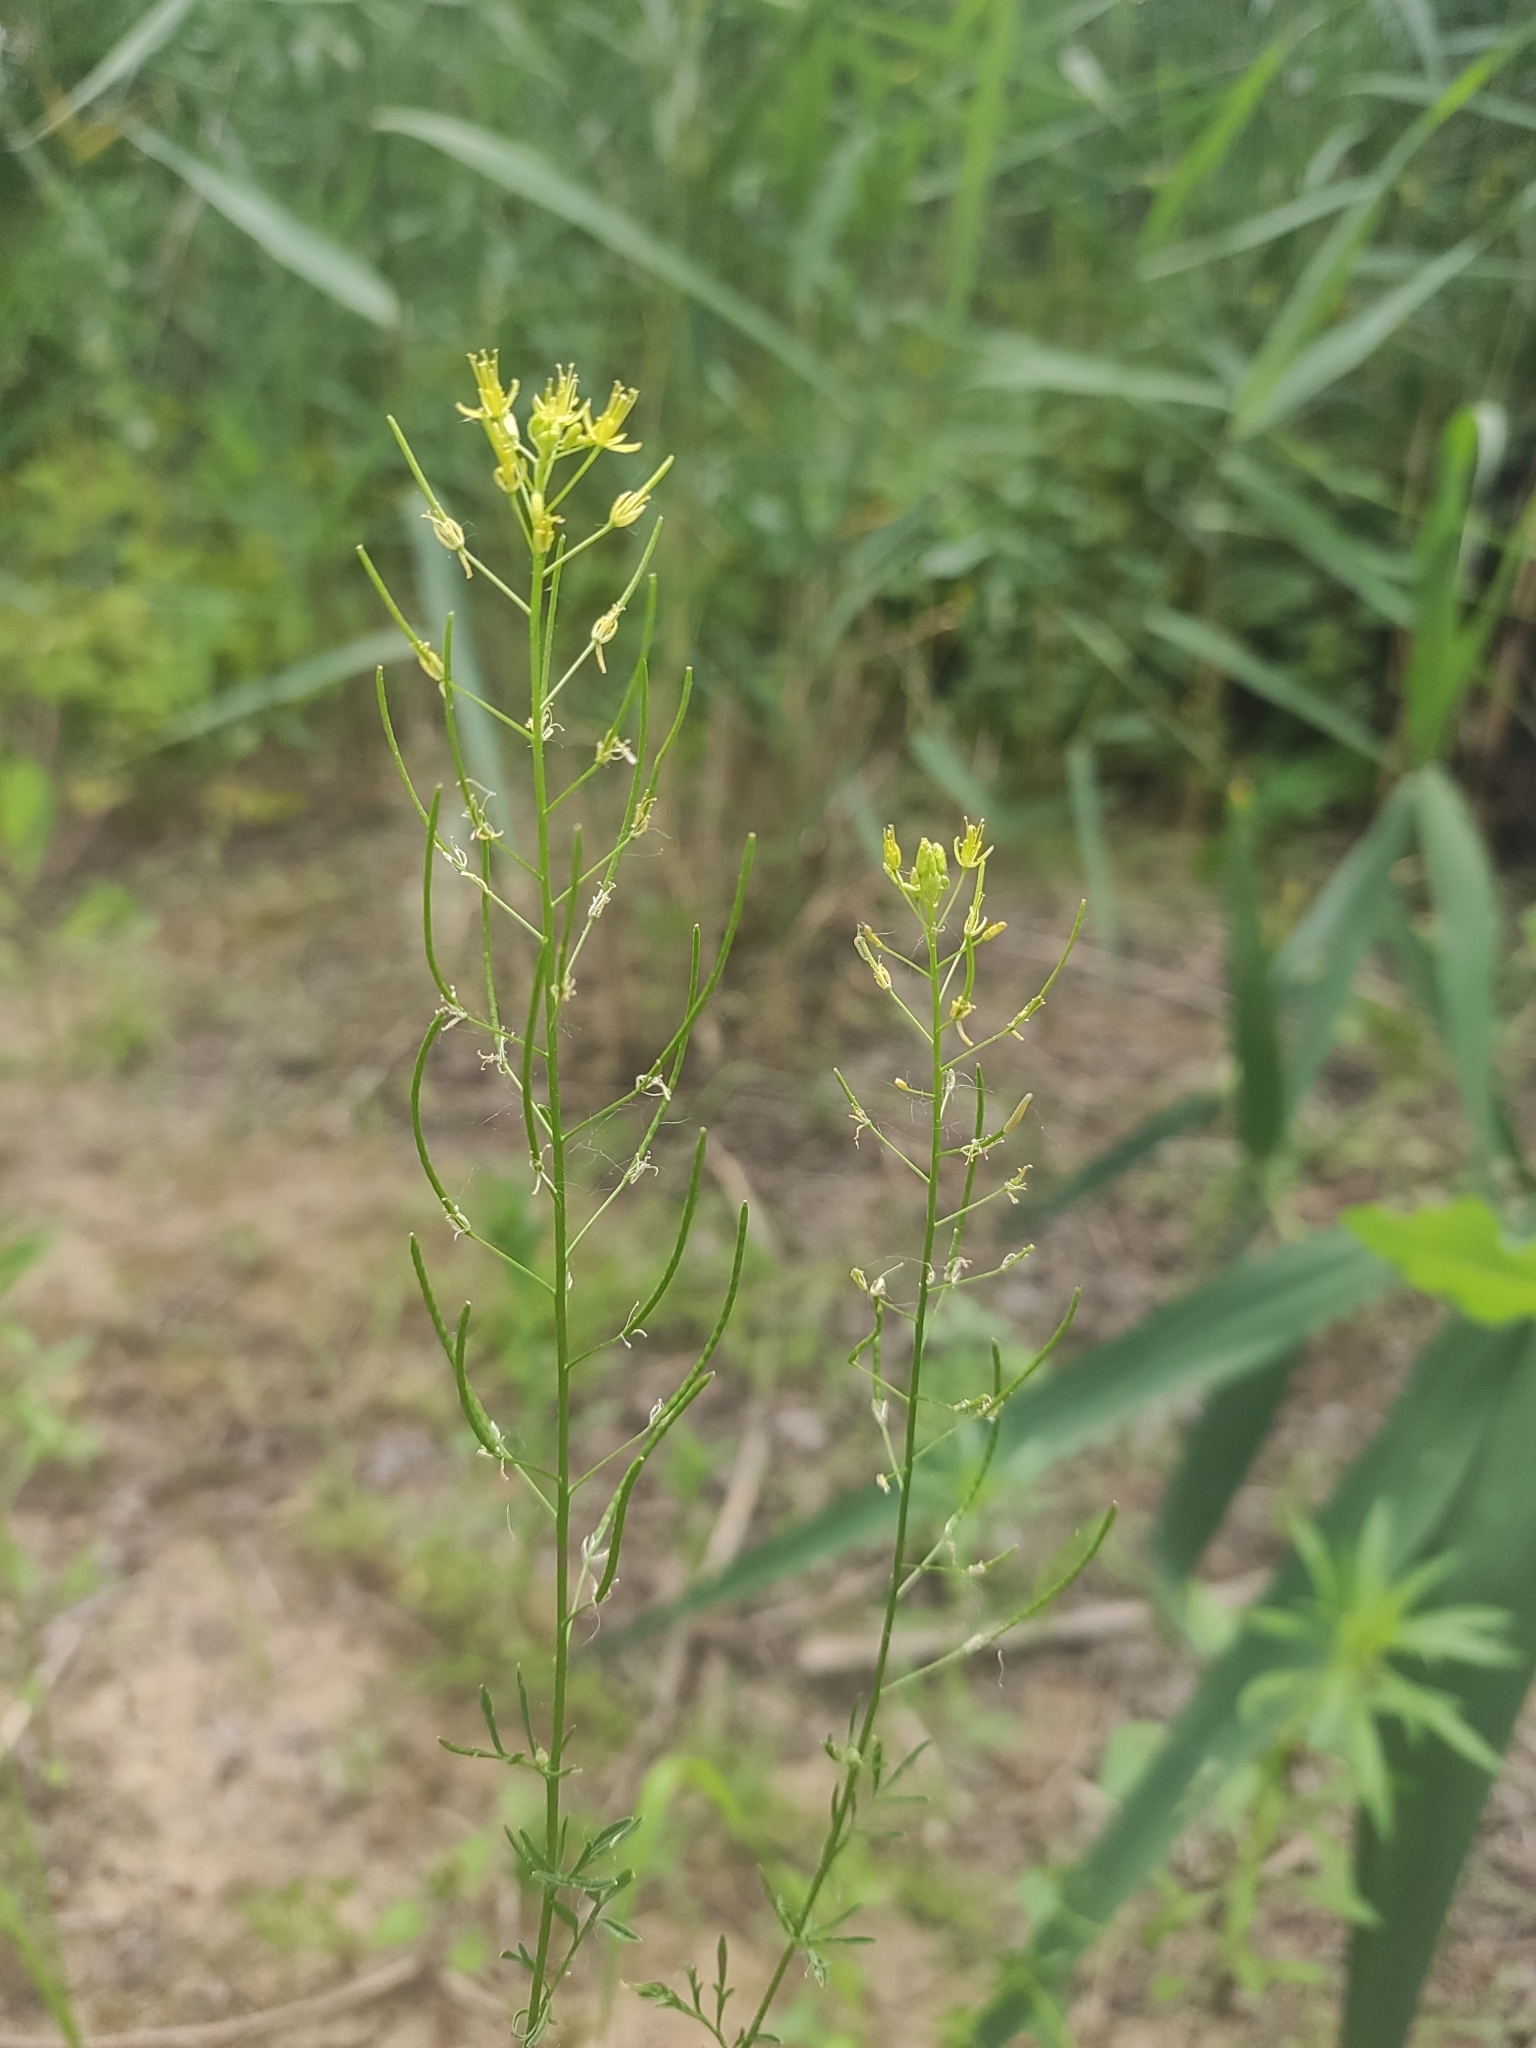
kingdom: Plantae
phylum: Tracheophyta
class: Magnoliopsida
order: Brassicales
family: Brassicaceae
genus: Descurainia
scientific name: Descurainia sophia
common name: Flixweed
